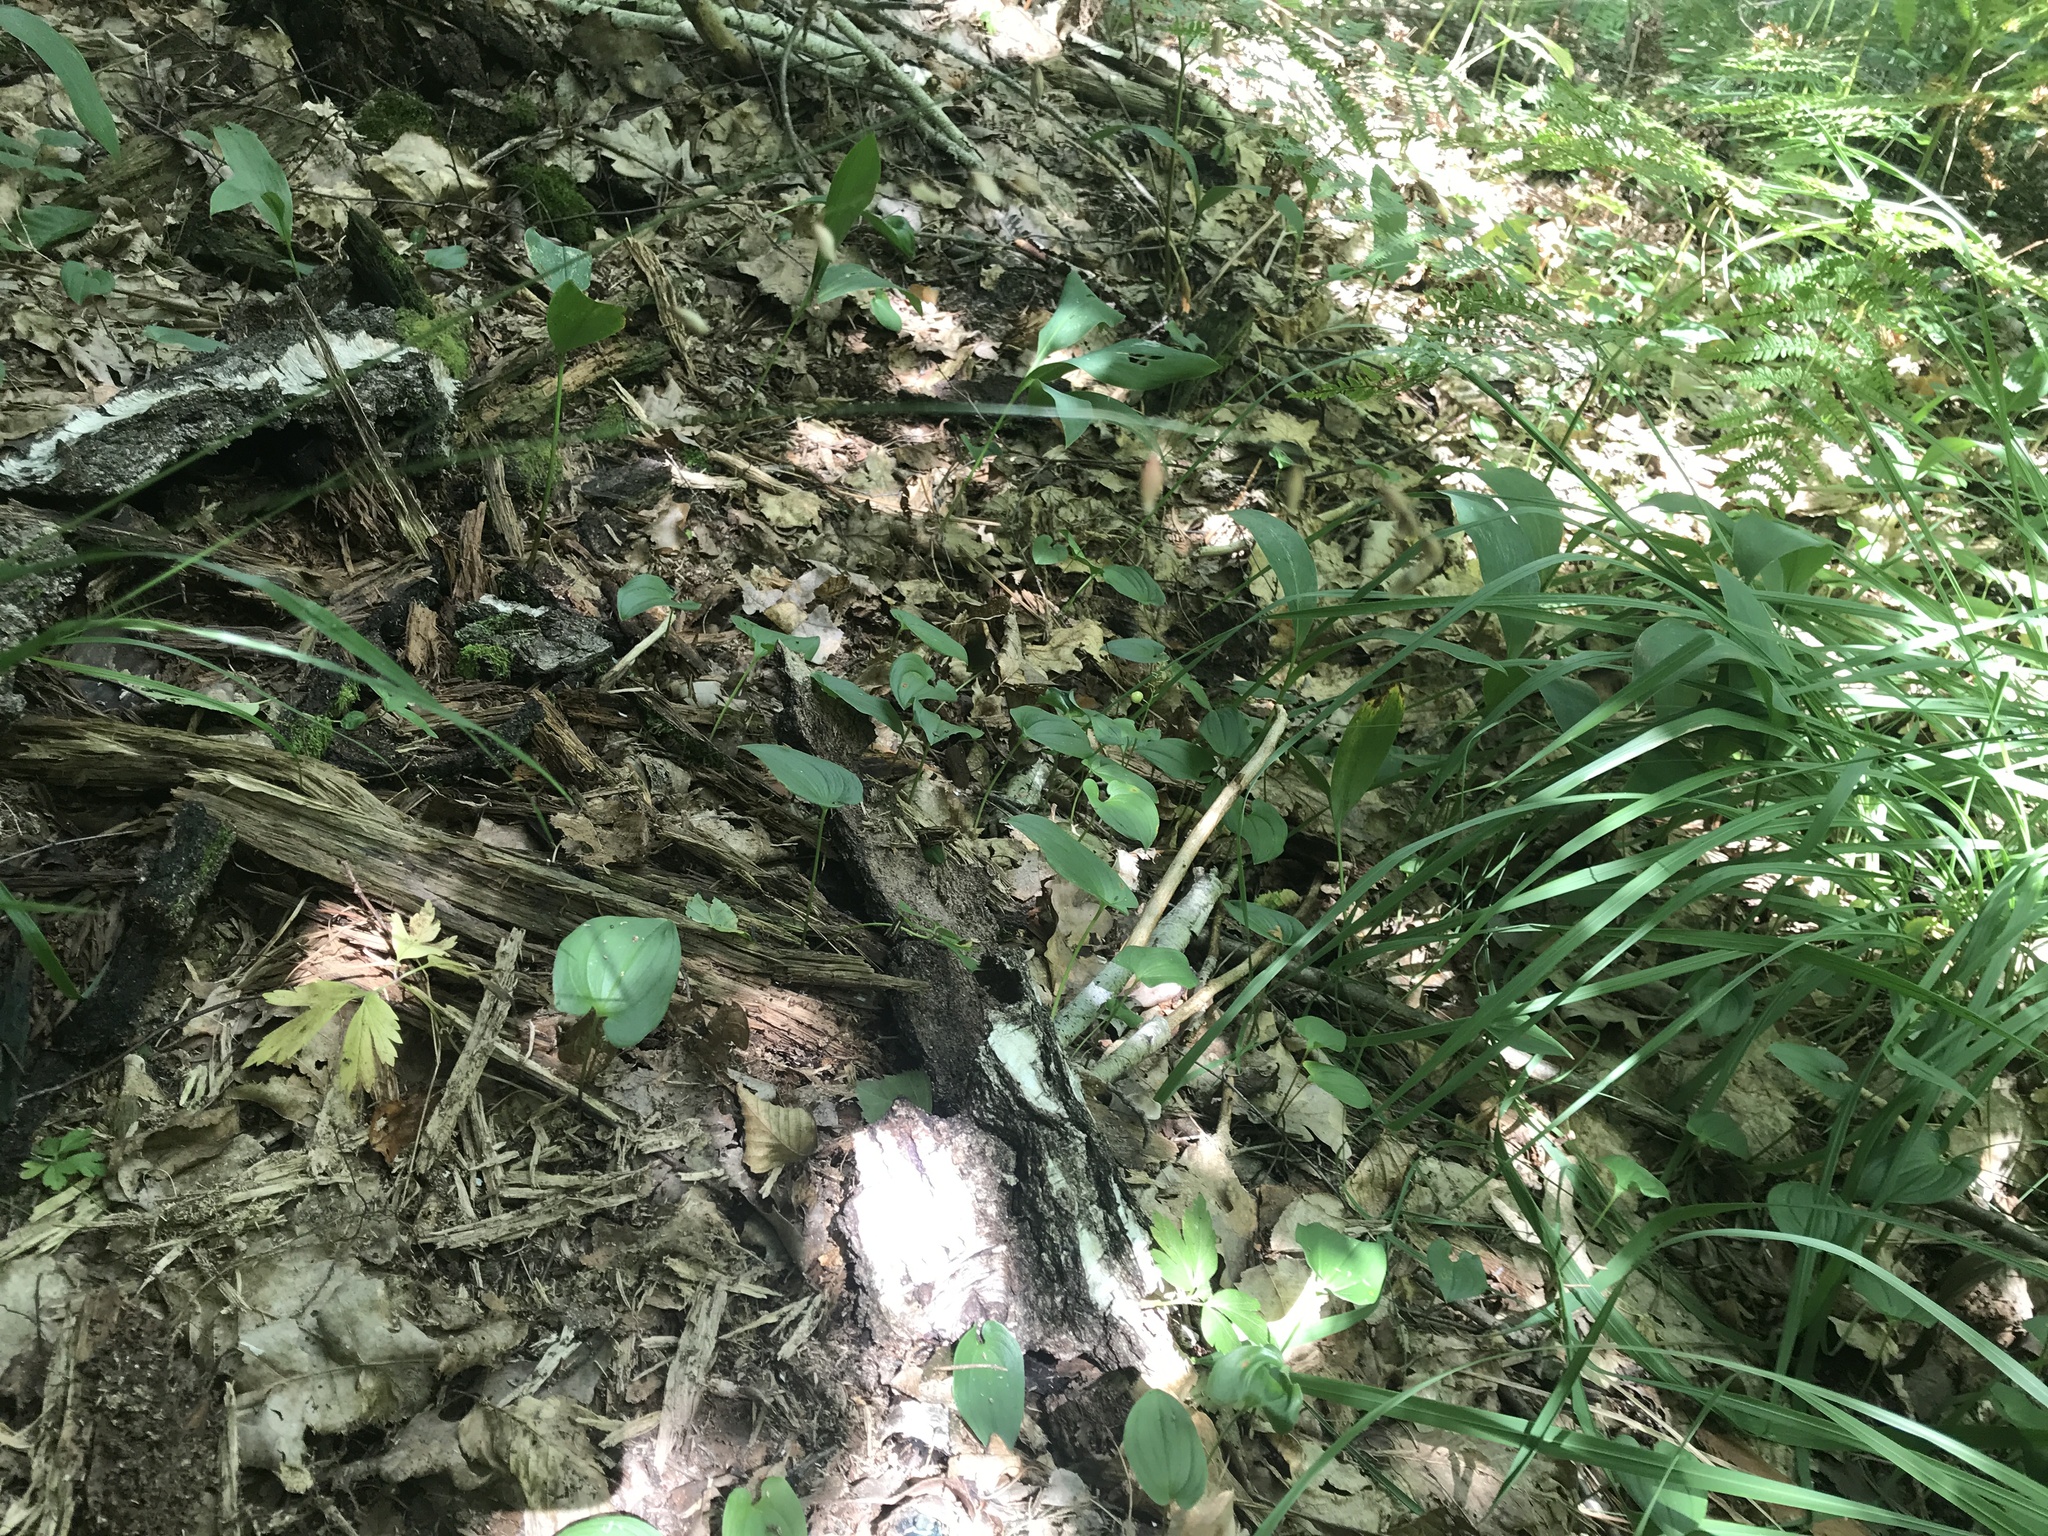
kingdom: Plantae
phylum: Tracheophyta
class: Liliopsida
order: Asparagales
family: Asparagaceae
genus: Maianthemum
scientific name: Maianthemum bifolium
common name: May lily
